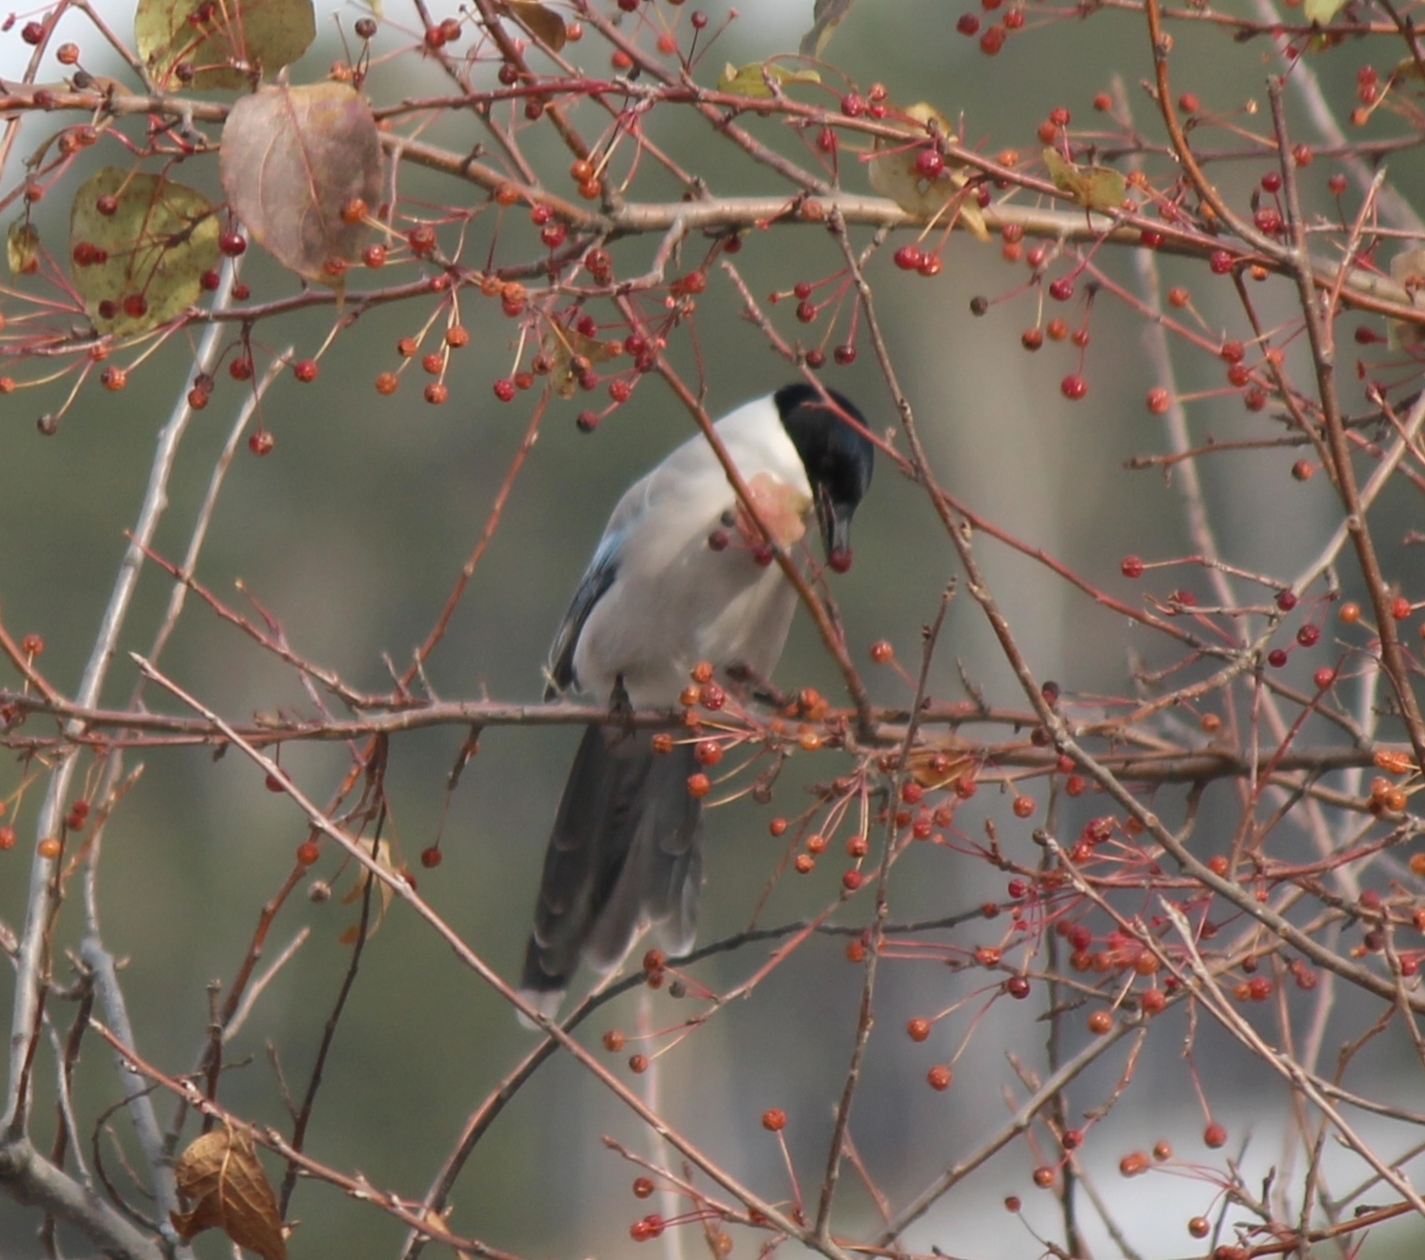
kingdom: Animalia
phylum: Chordata
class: Aves
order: Passeriformes
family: Corvidae
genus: Cyanopica
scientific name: Cyanopica cyanus
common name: Azure-winged magpie
